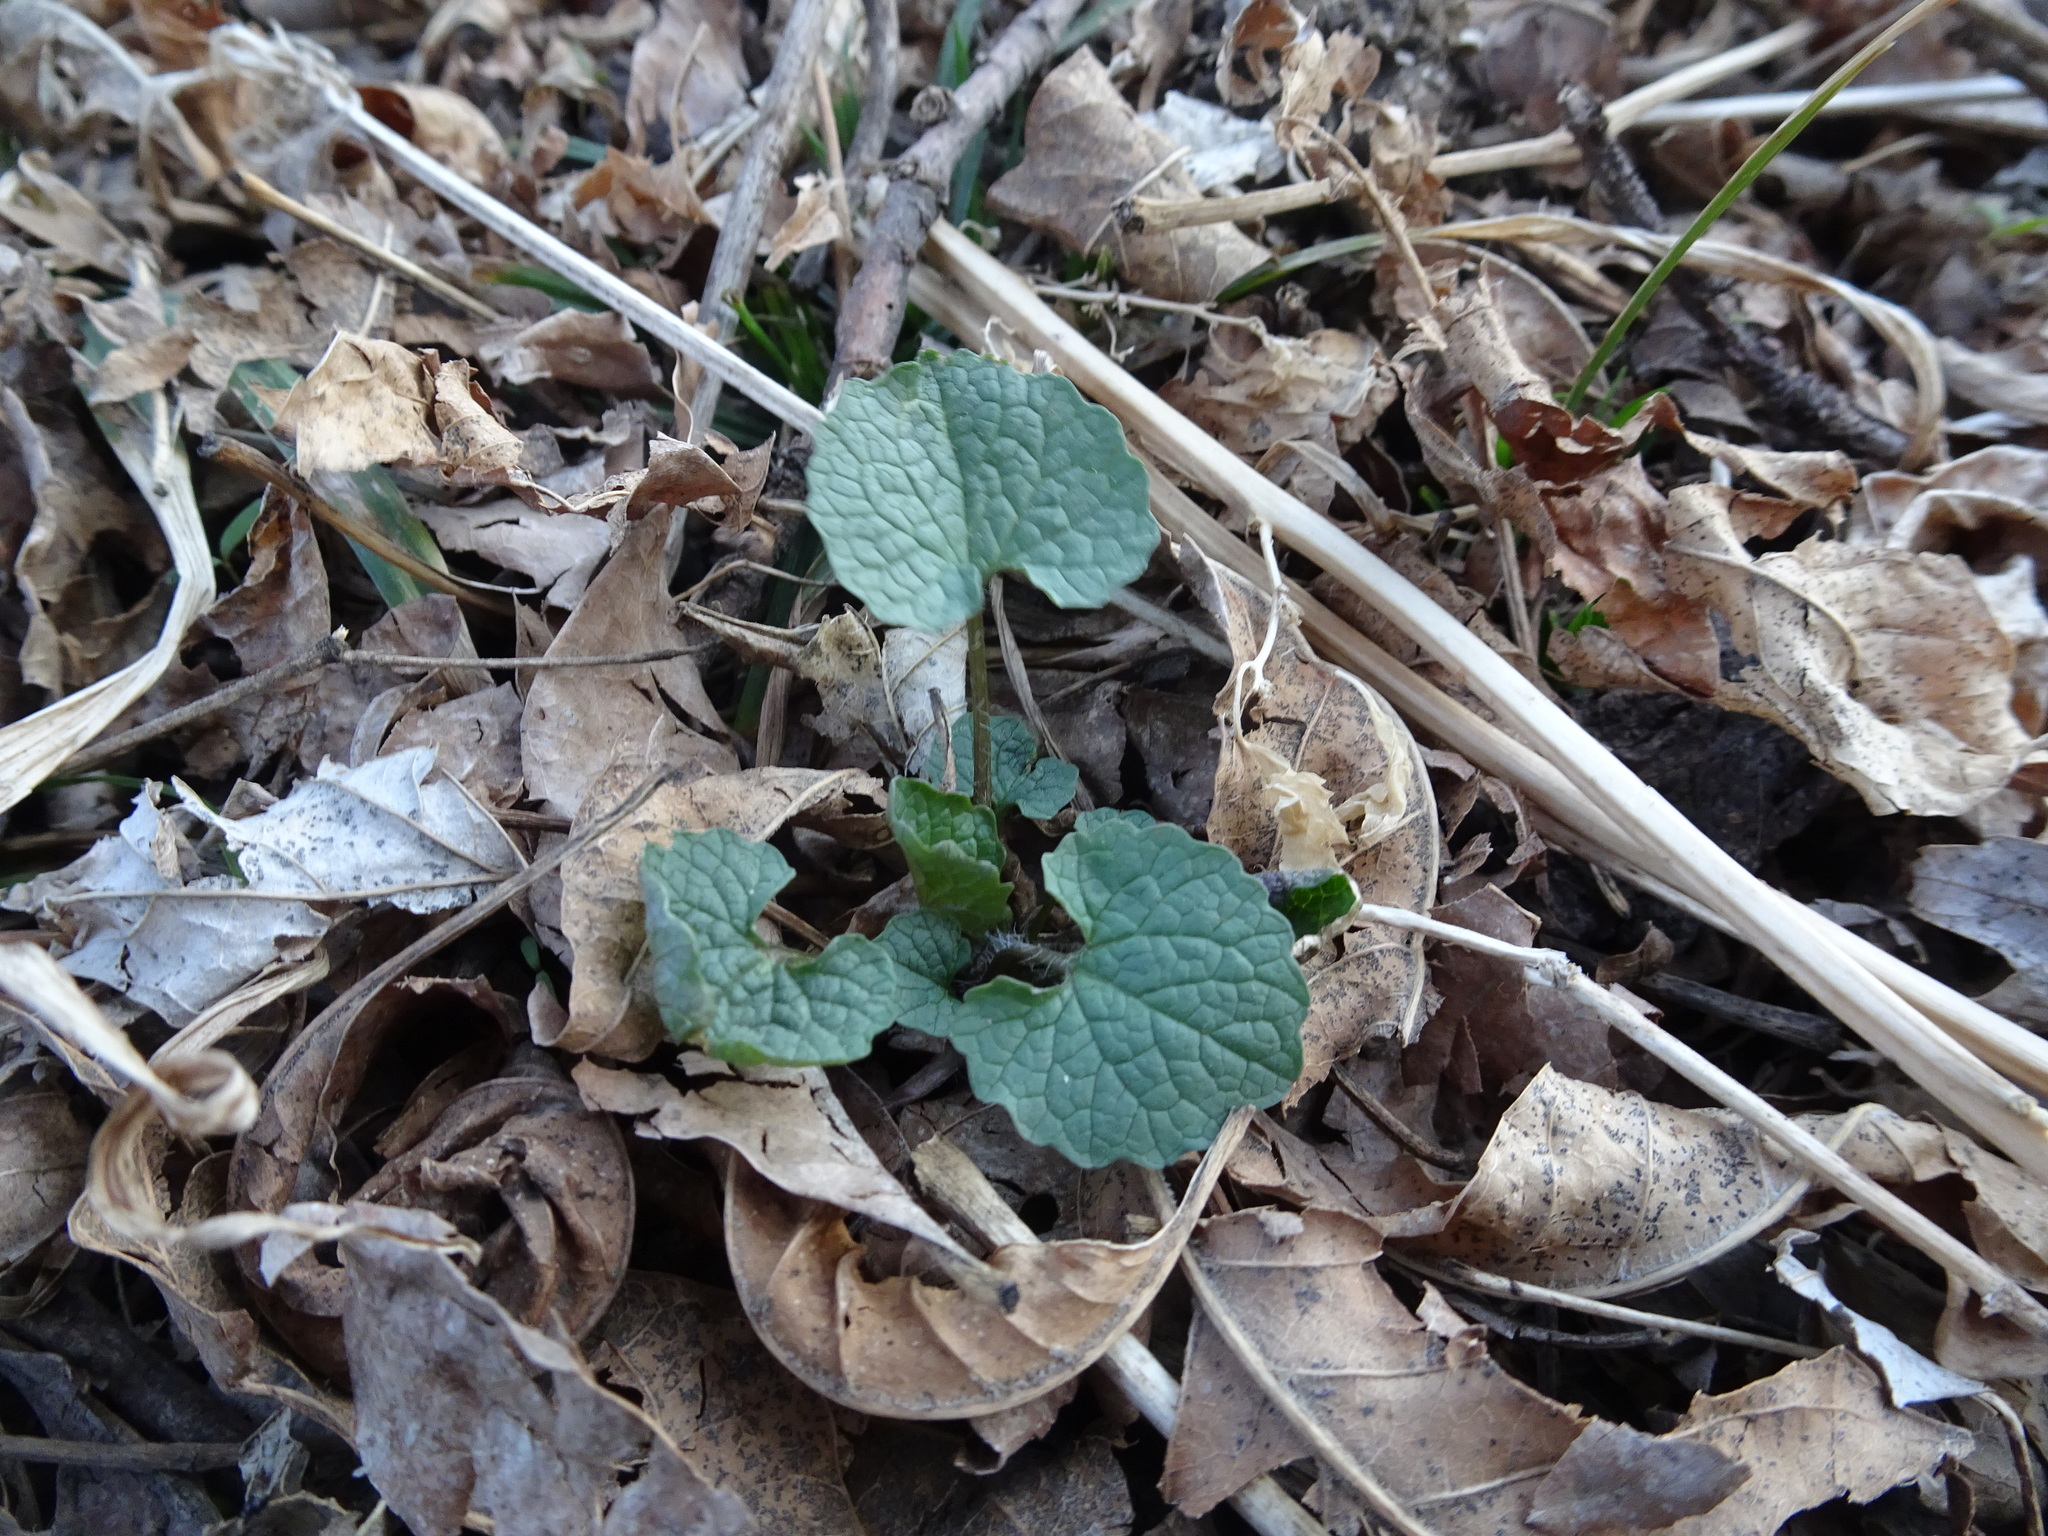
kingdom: Plantae
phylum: Tracheophyta
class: Magnoliopsida
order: Brassicales
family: Brassicaceae
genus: Alliaria
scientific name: Alliaria petiolata
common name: Garlic mustard
